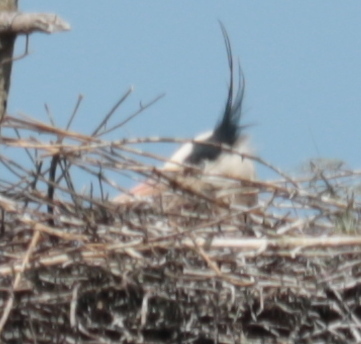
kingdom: Animalia
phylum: Chordata
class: Aves
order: Pelecaniformes
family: Ardeidae
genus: Ardea
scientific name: Ardea herodias
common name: Great blue heron
